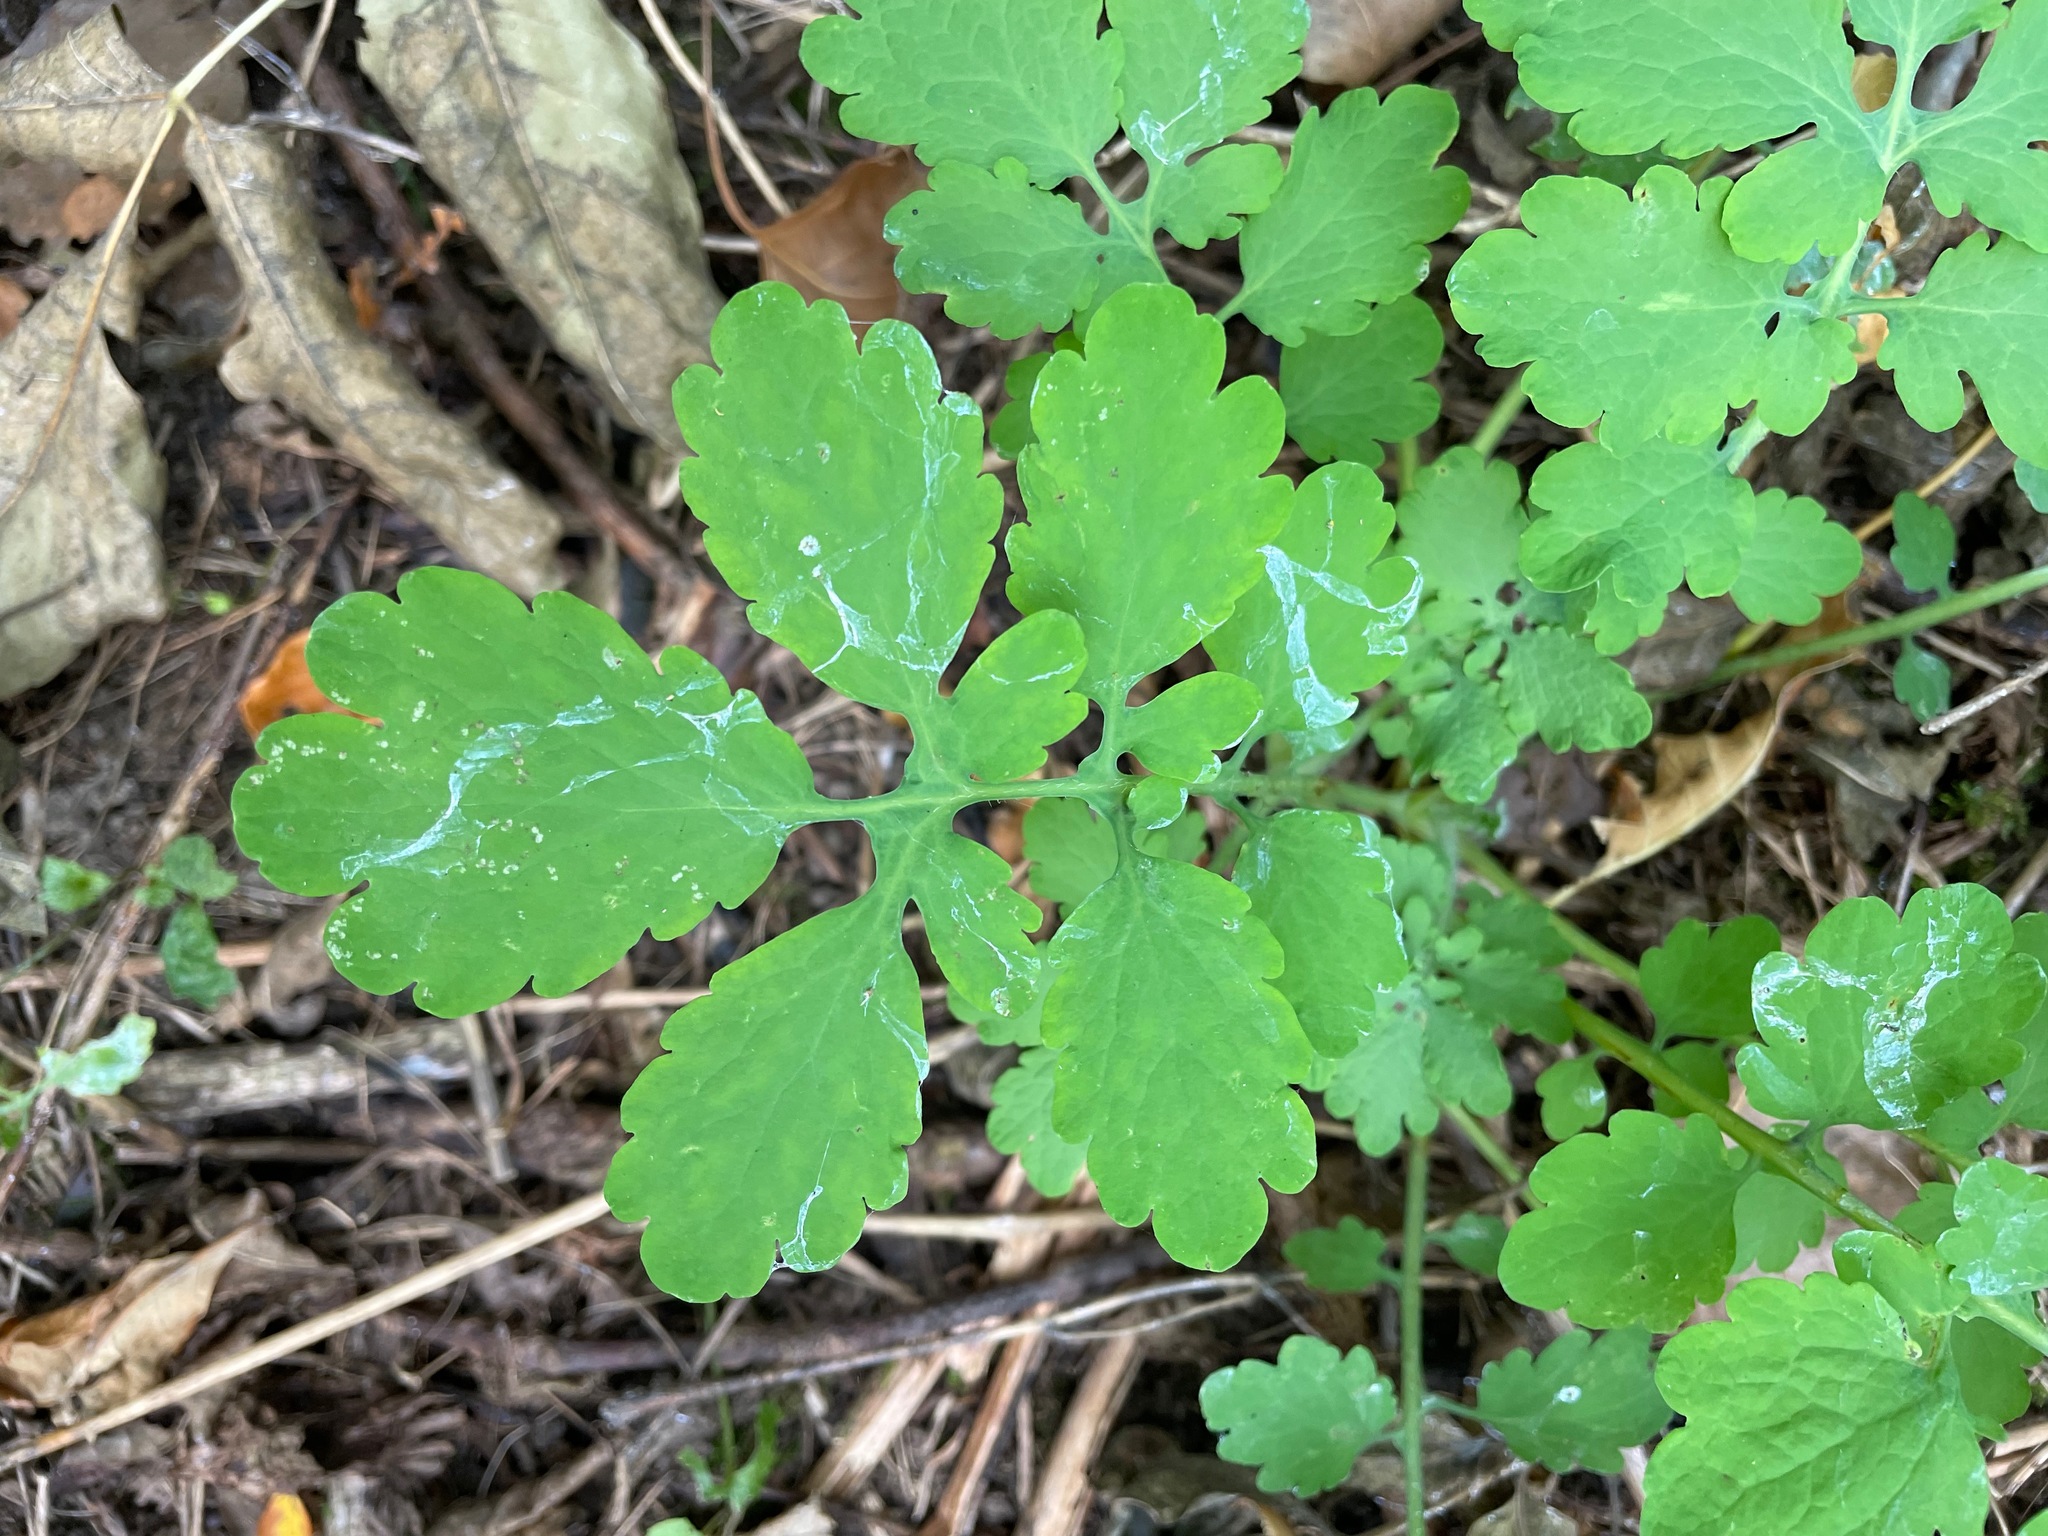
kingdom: Plantae
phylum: Tracheophyta
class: Magnoliopsida
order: Ranunculales
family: Papaveraceae
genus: Chelidonium
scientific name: Chelidonium majus
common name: Greater celandine
